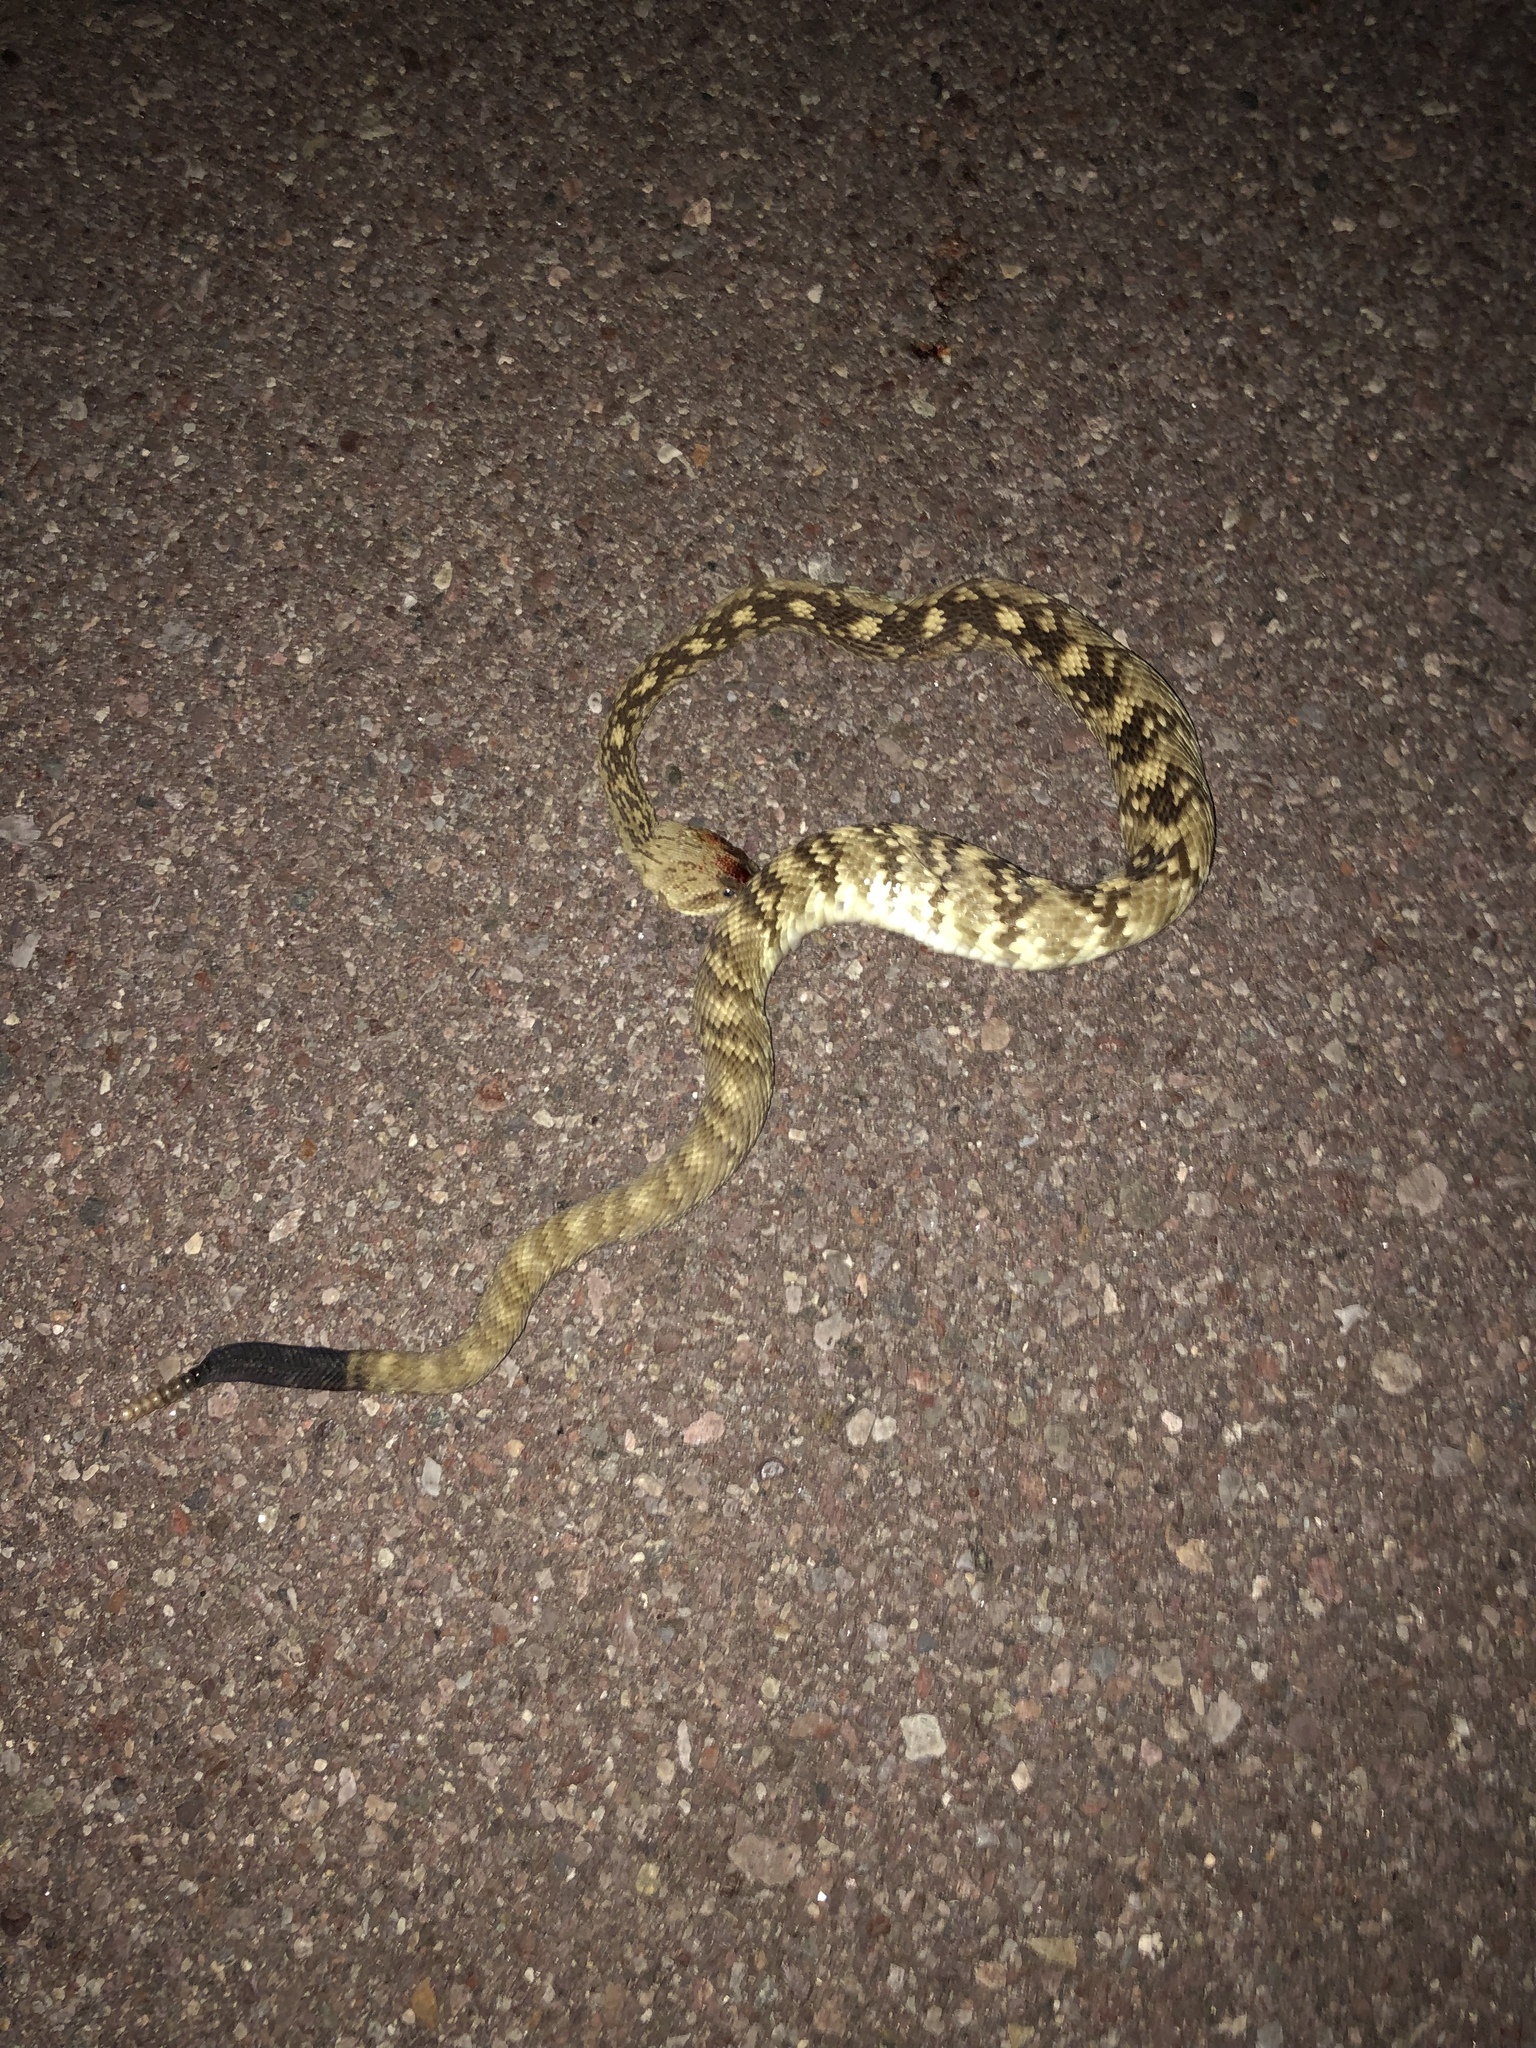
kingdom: Animalia
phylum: Chordata
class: Squamata
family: Viperidae
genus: Crotalus
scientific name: Crotalus ornatus
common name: Black-tailed rattlesnake
